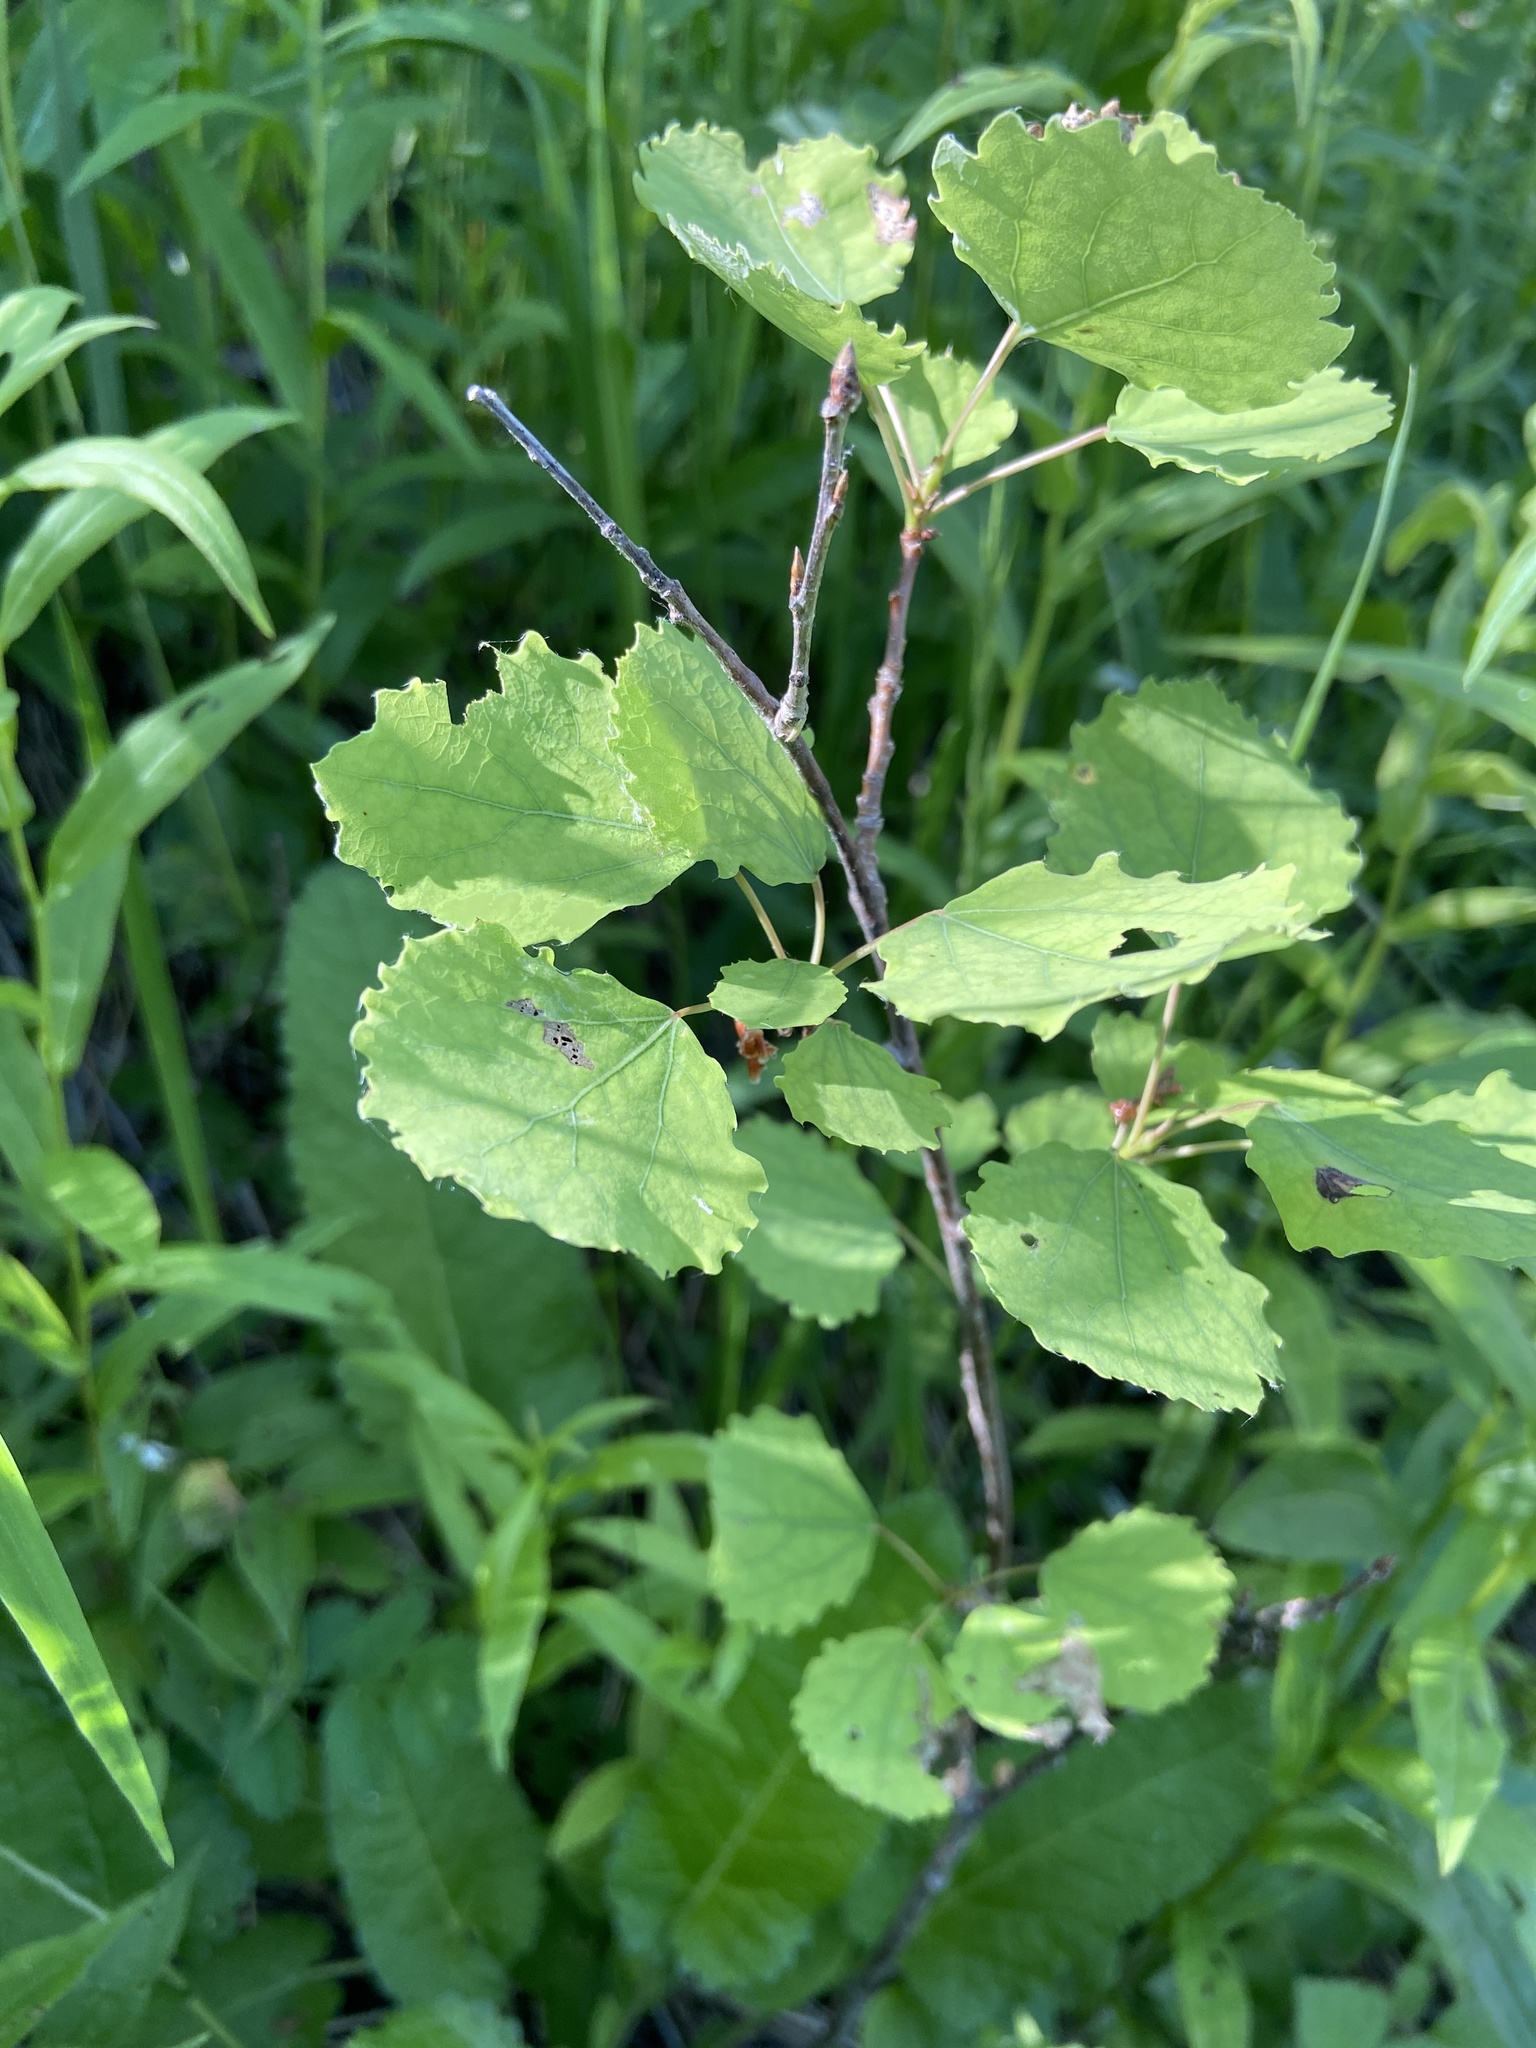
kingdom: Plantae
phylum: Tracheophyta
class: Magnoliopsida
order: Malpighiales
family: Salicaceae
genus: Populus
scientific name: Populus tremula
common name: European aspen
